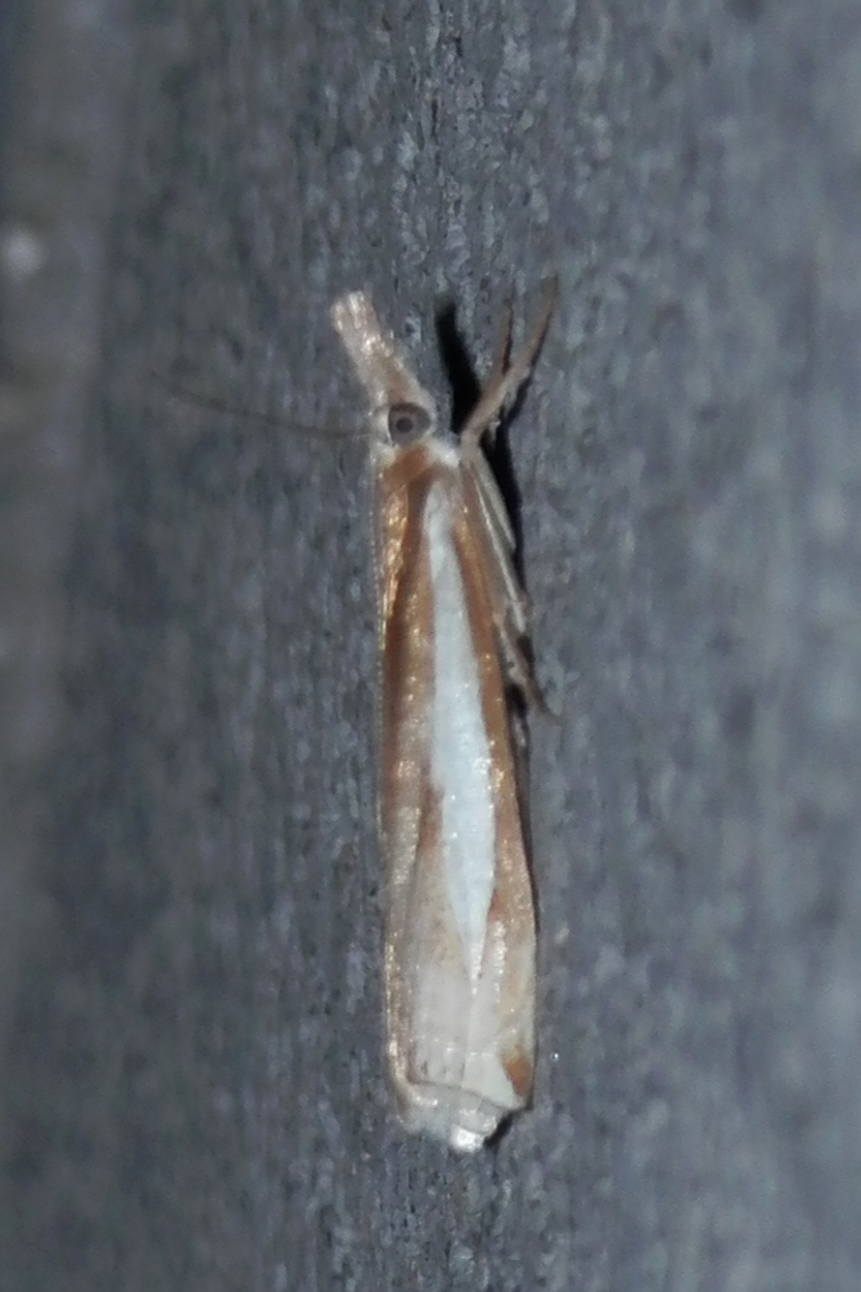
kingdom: Animalia
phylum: Arthropoda
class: Insecta
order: Lepidoptera
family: Crambidae
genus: Crambus
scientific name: Crambus praefectellus
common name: Common grass-veneer
